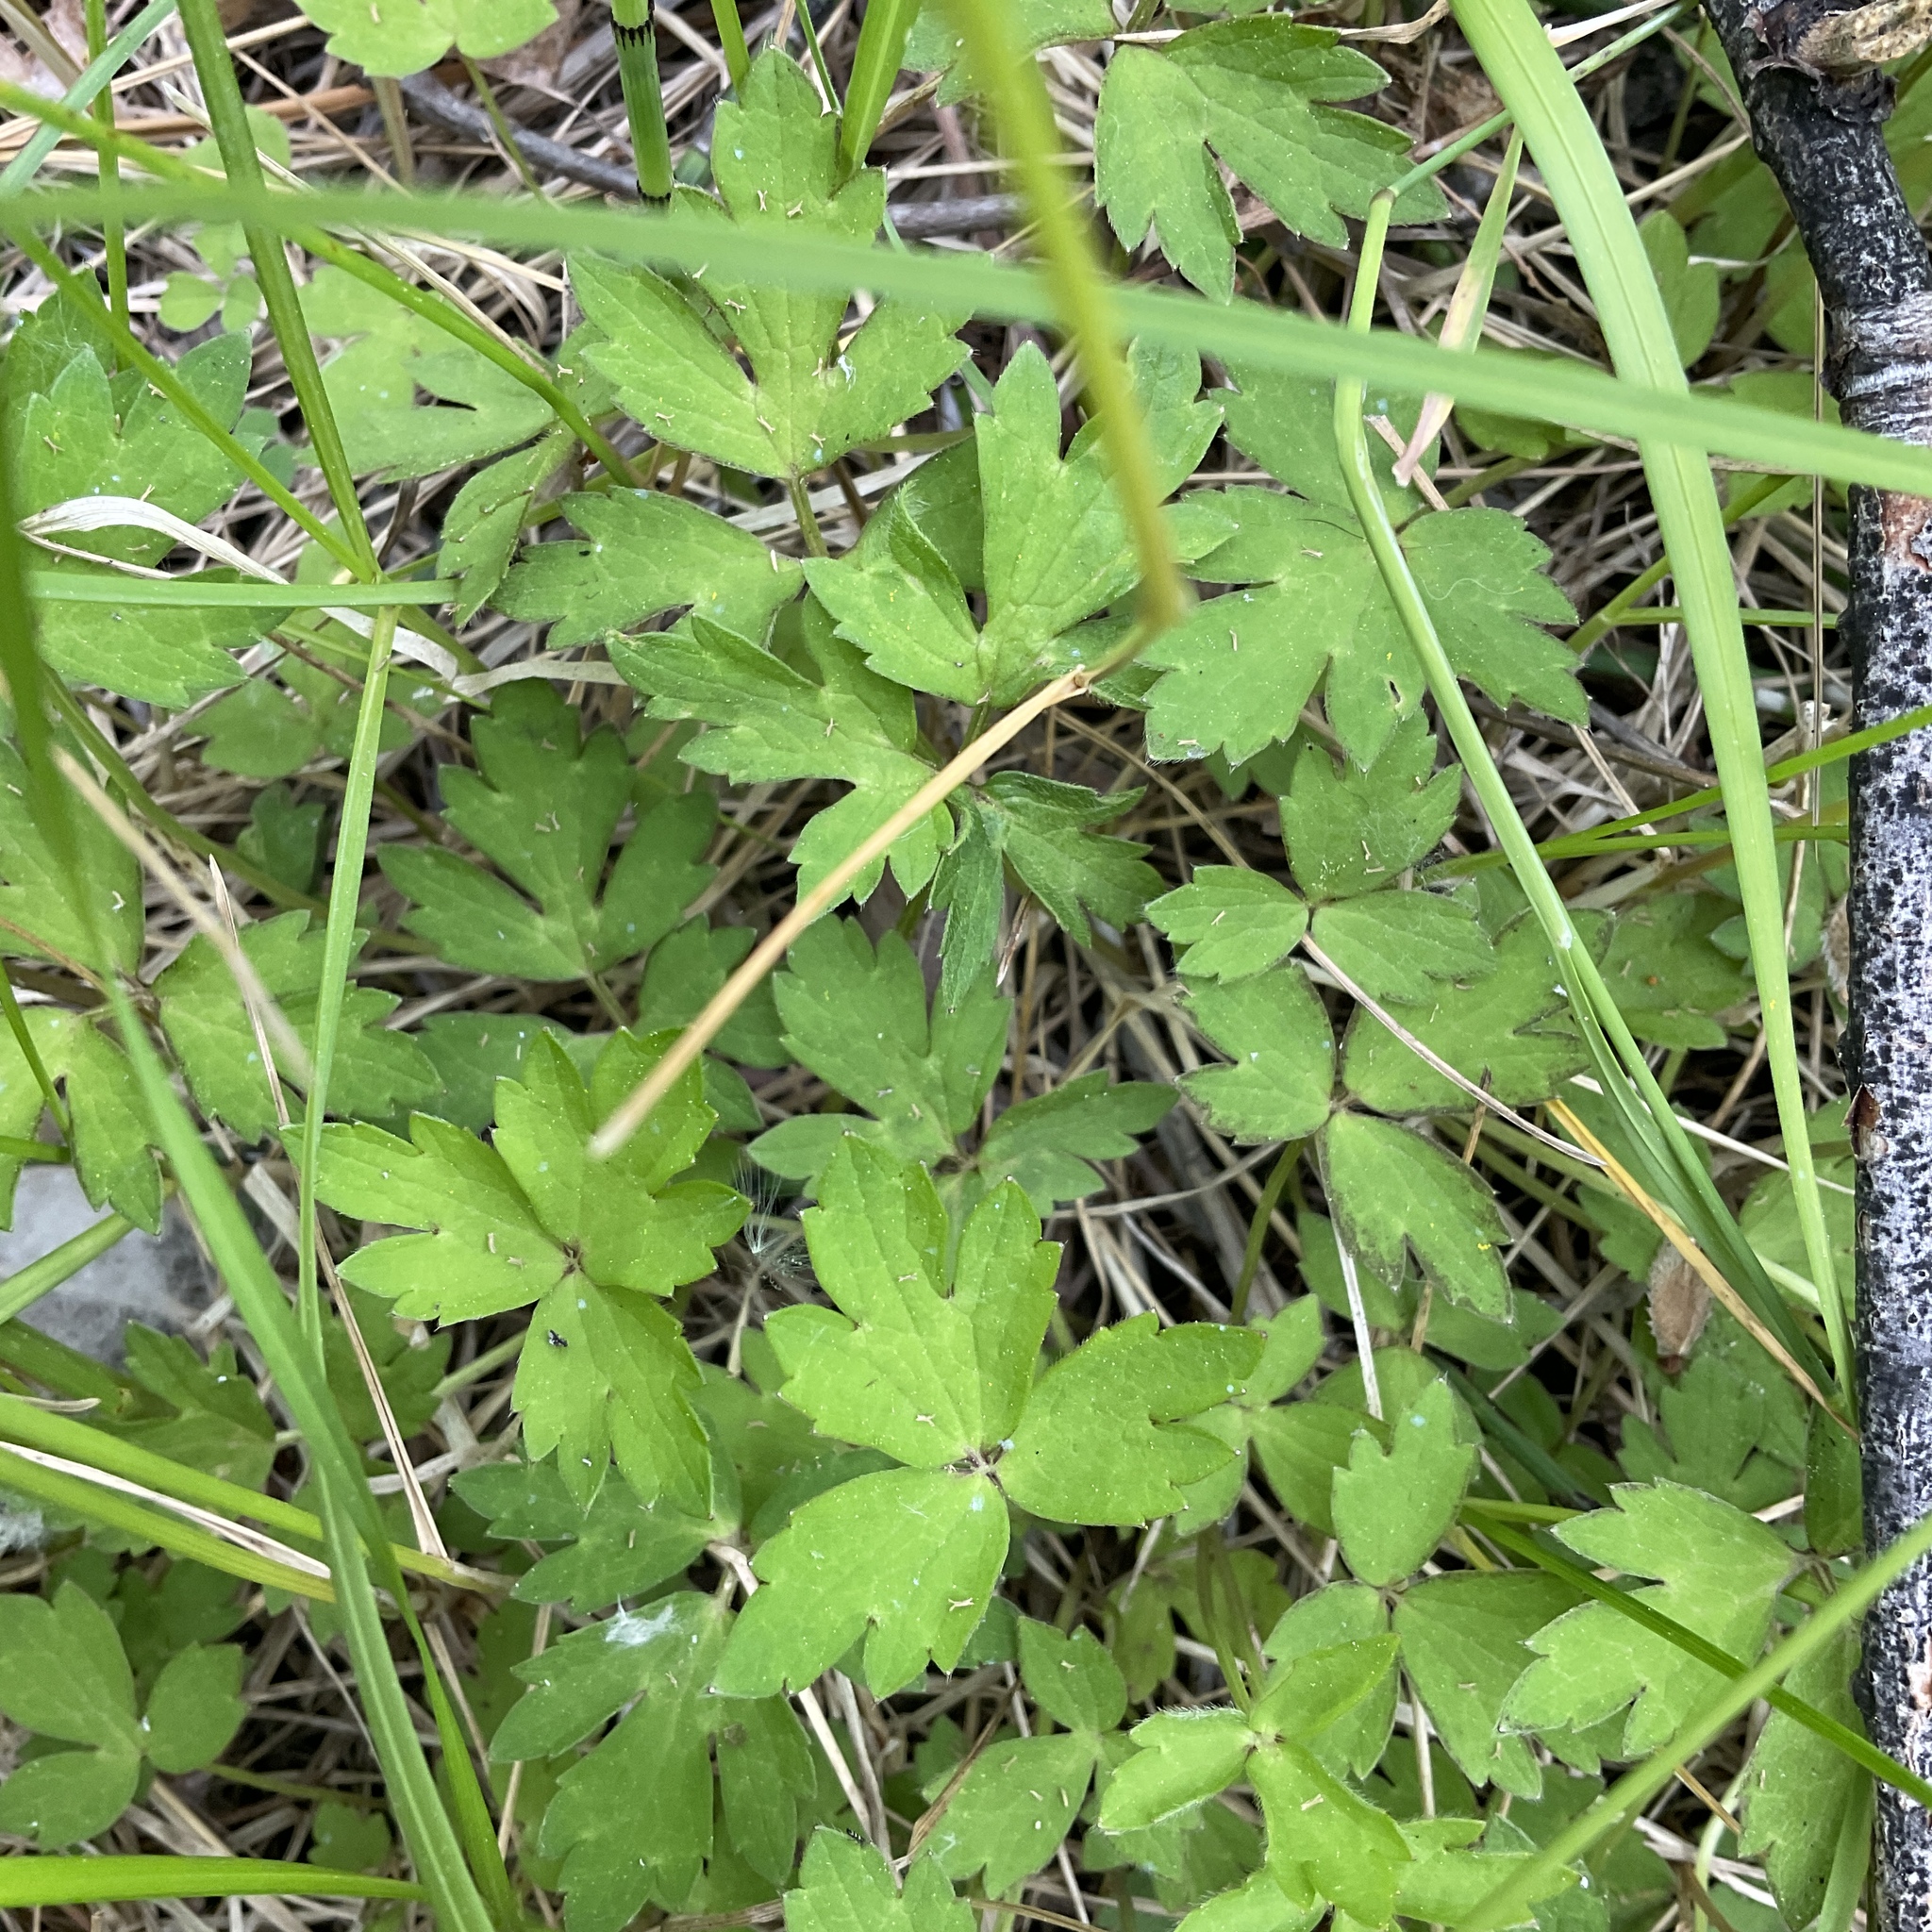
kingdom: Plantae
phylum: Tracheophyta
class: Magnoliopsida
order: Ranunculales
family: Ranunculaceae
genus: Ranunculus
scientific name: Ranunculus repens
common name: Creeping buttercup
